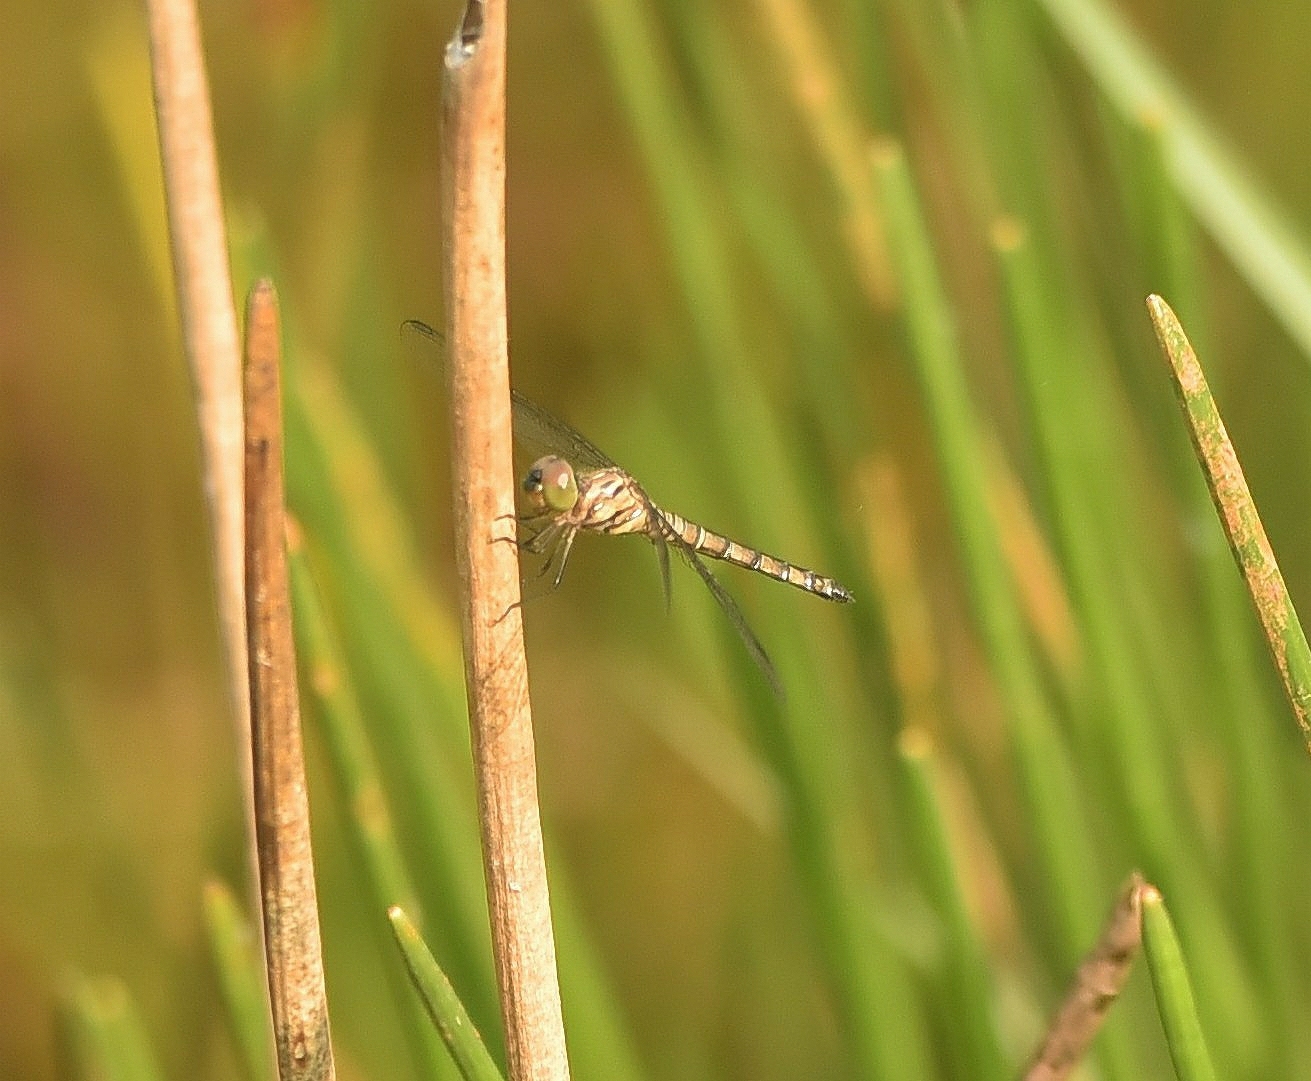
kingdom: Animalia
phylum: Arthropoda
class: Insecta
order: Odonata
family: Libellulidae
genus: Brachydiplax
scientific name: Brachydiplax chalybea
